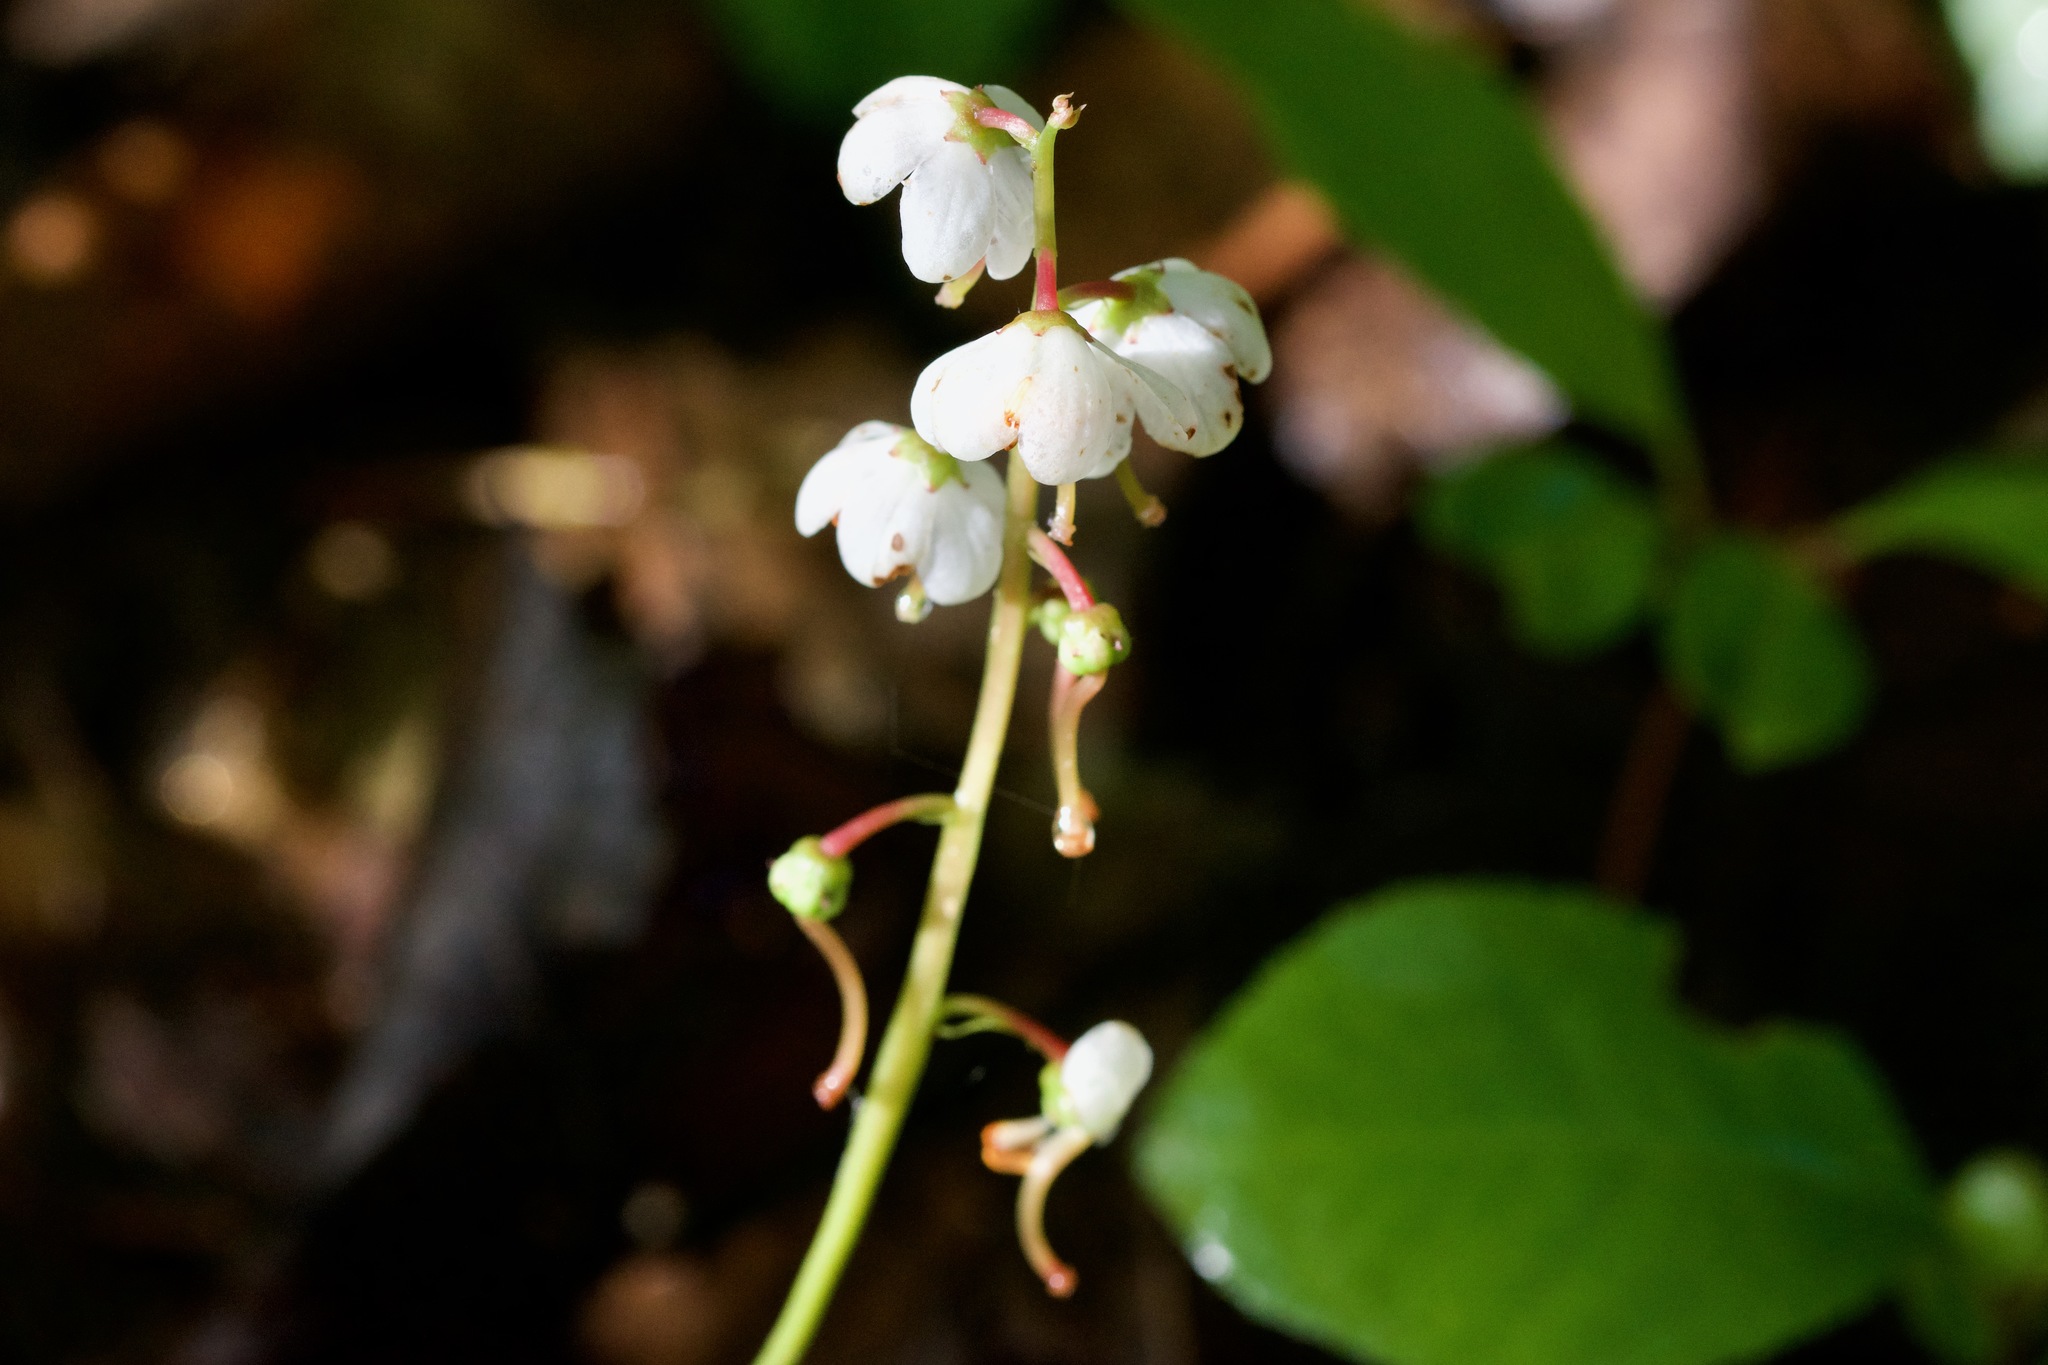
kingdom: Plantae
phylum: Tracheophyta
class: Magnoliopsida
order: Ericales
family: Ericaceae
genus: Pyrola
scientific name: Pyrola elliptica
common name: Shinleaf
